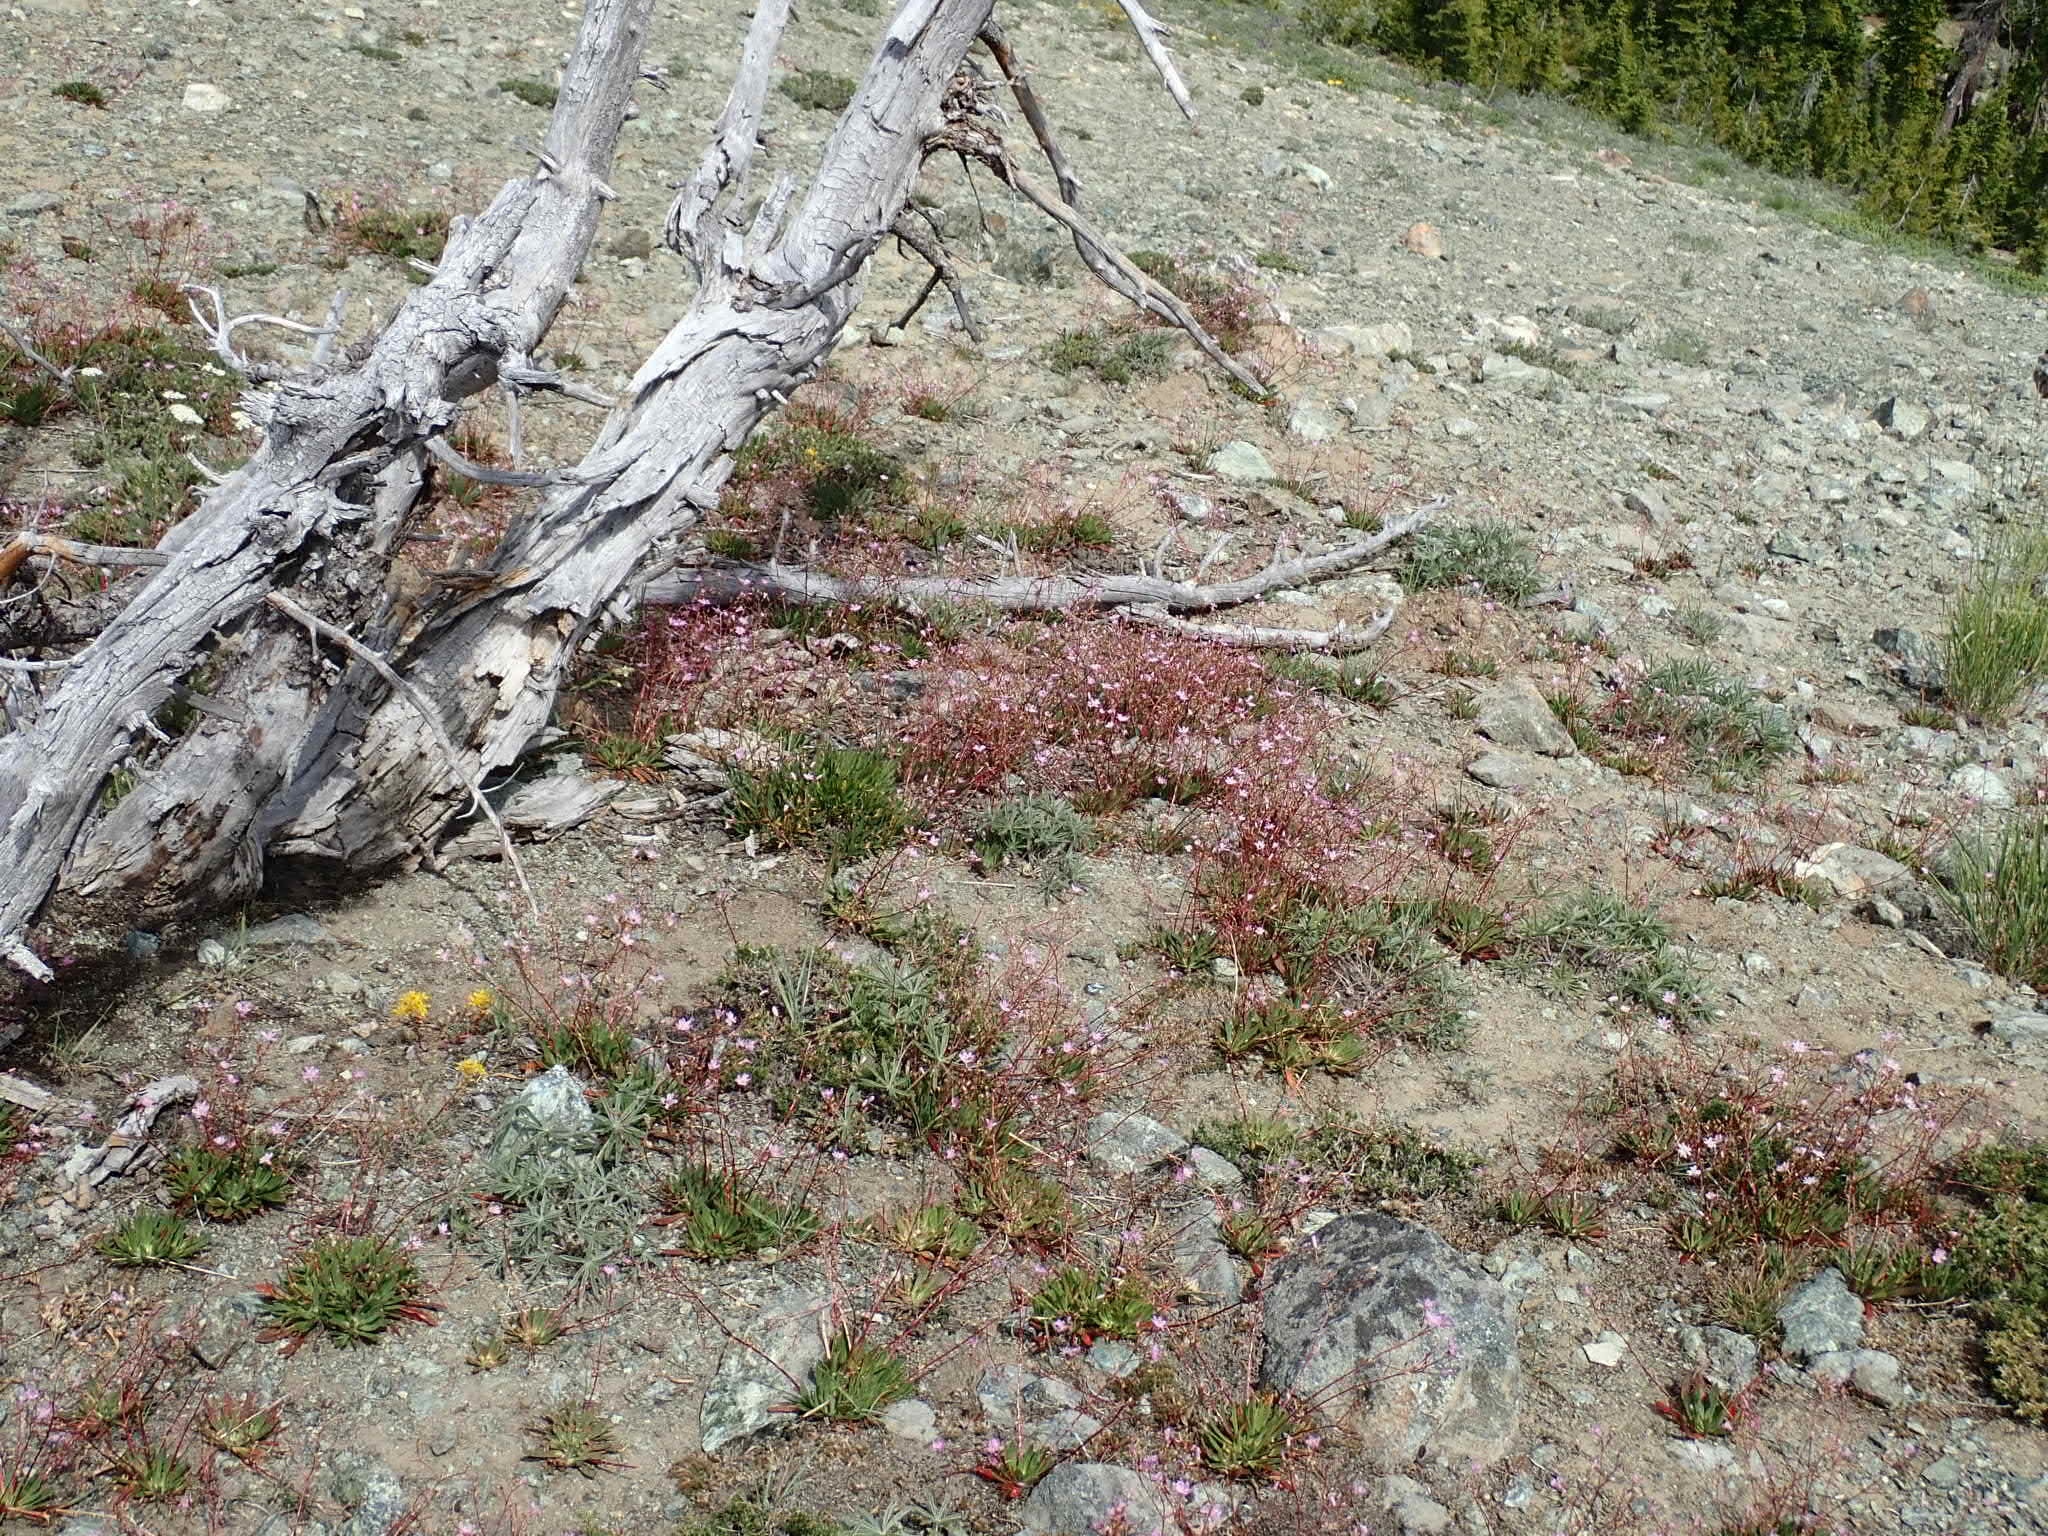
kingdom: Plantae
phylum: Tracheophyta
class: Magnoliopsida
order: Caryophyllales
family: Montiaceae
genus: Lewisia
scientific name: Lewisia columbiana
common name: Columbia lewisia
